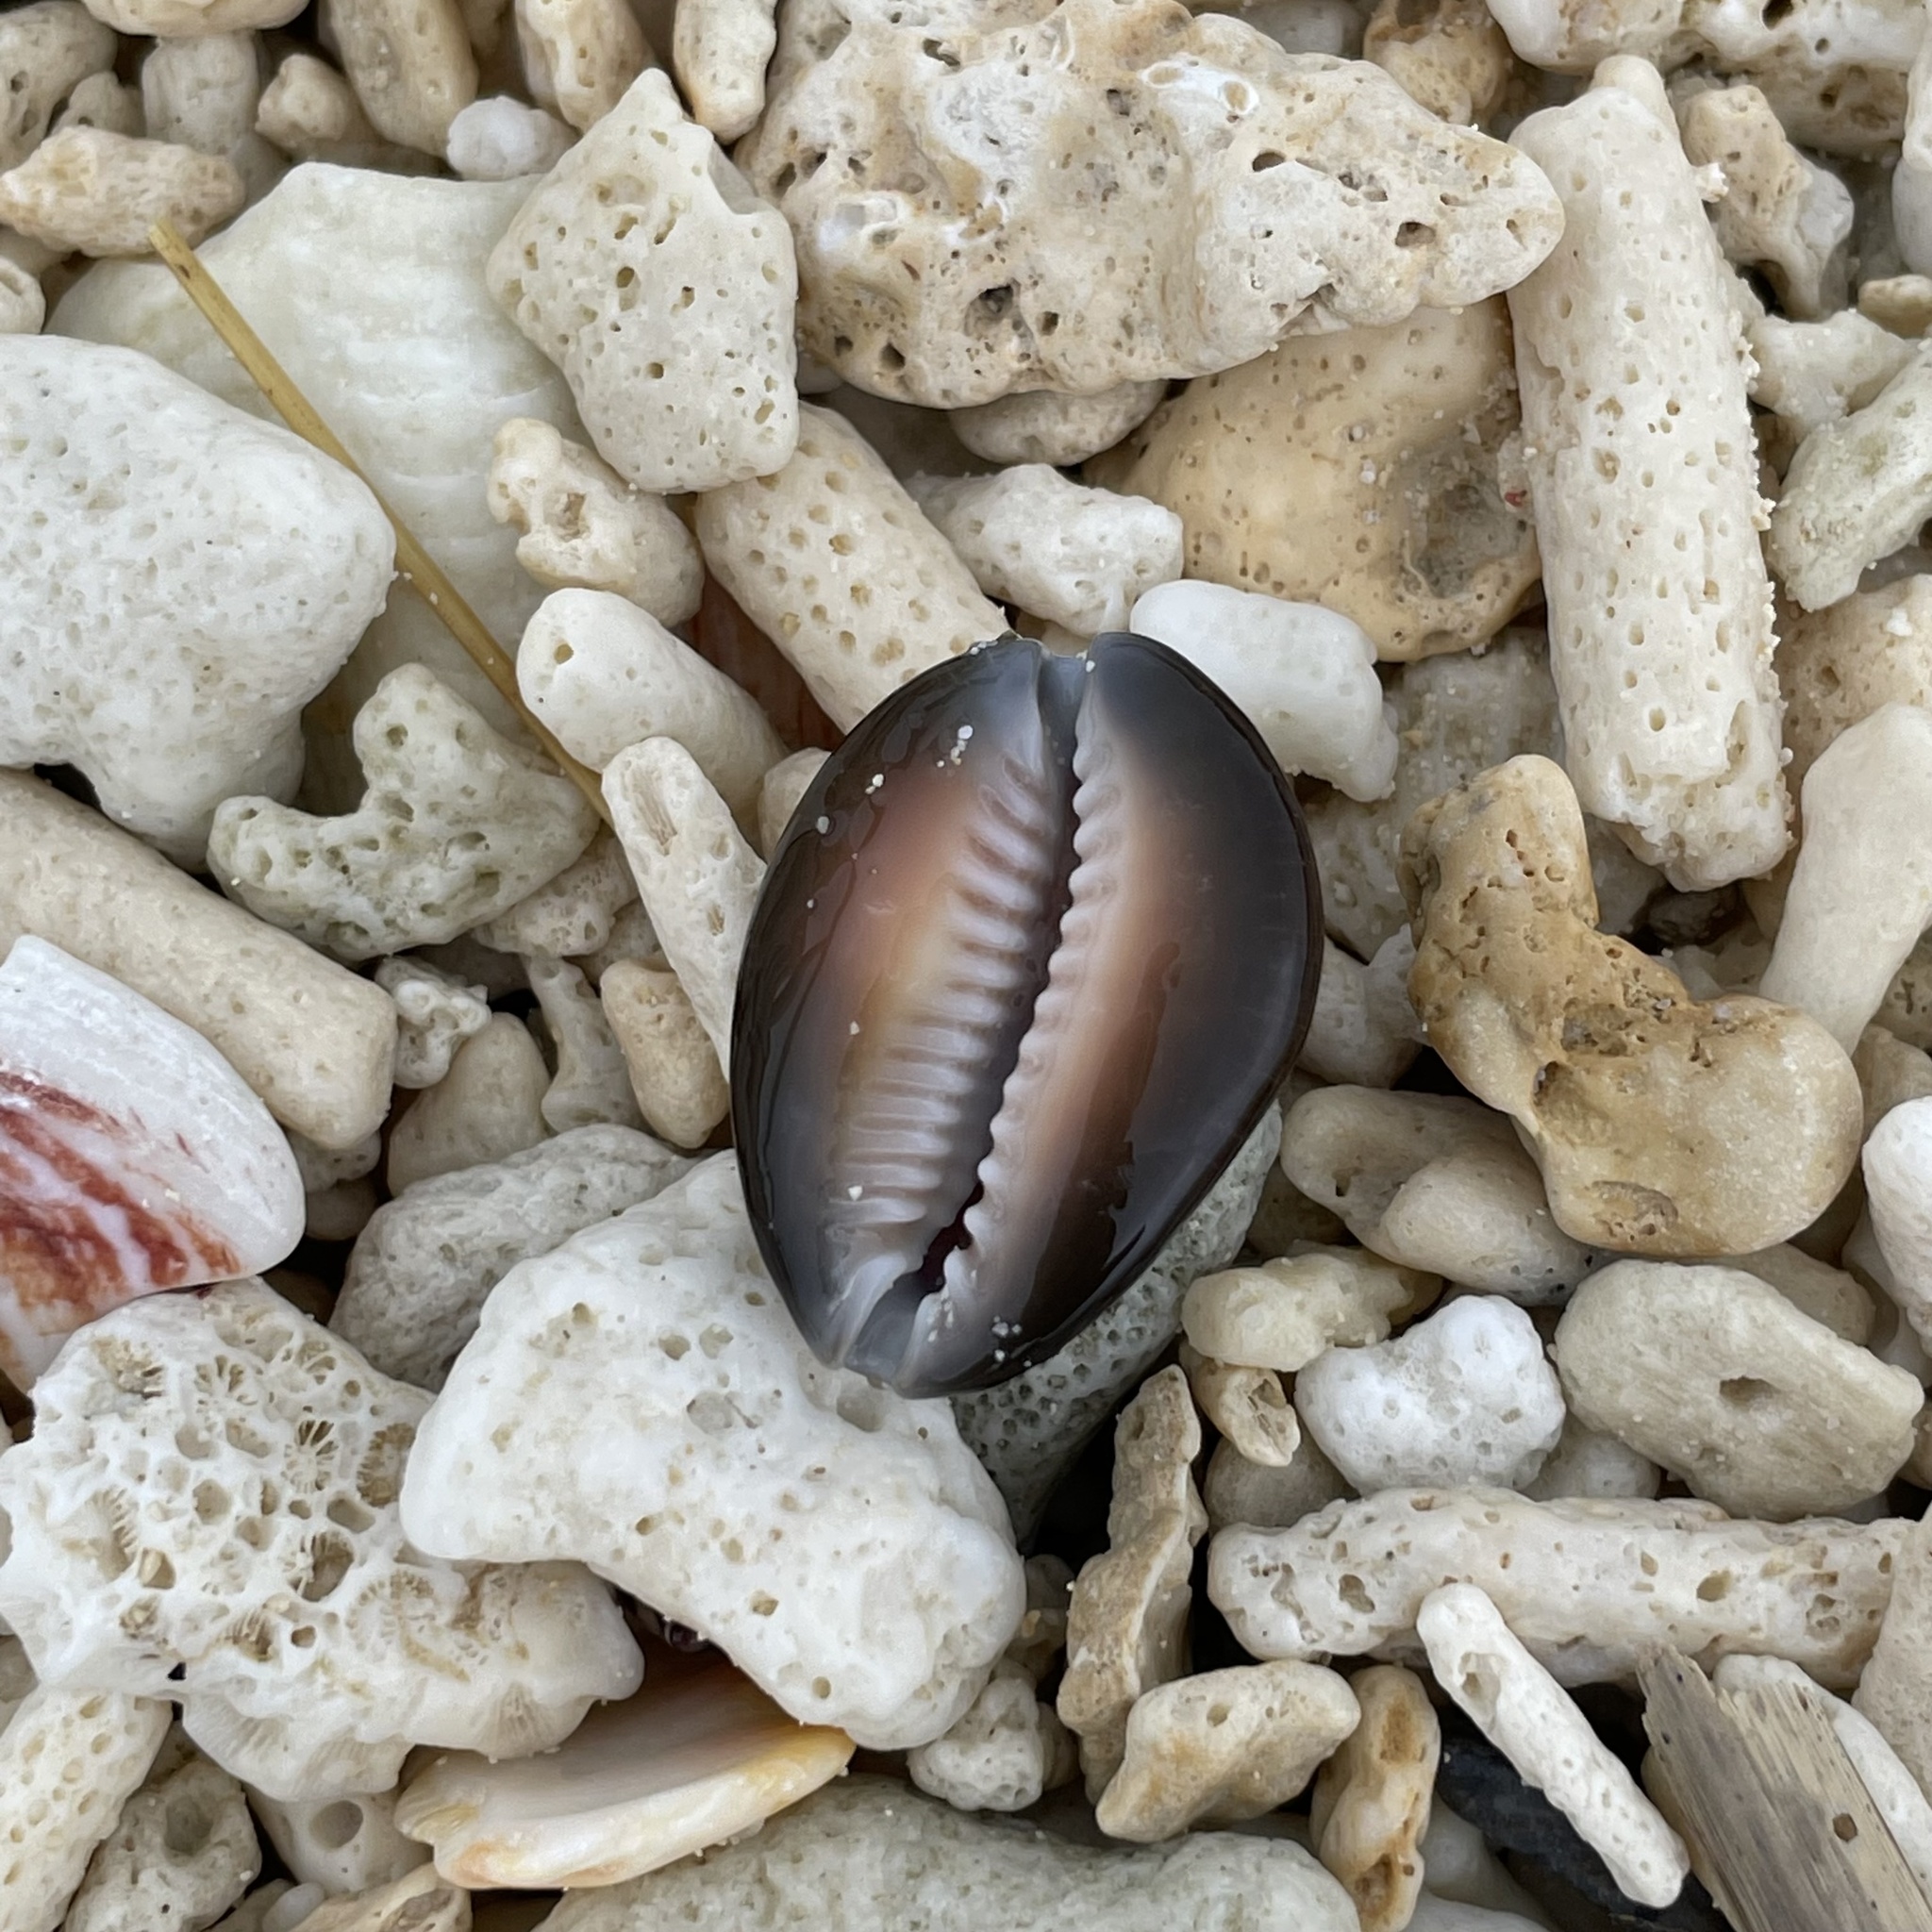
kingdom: Animalia
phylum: Mollusca
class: Gastropoda
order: Littorinimorpha
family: Cypraeidae
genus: Monetaria
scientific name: Monetaria caputserpentis
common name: Serpent's head cowrie
